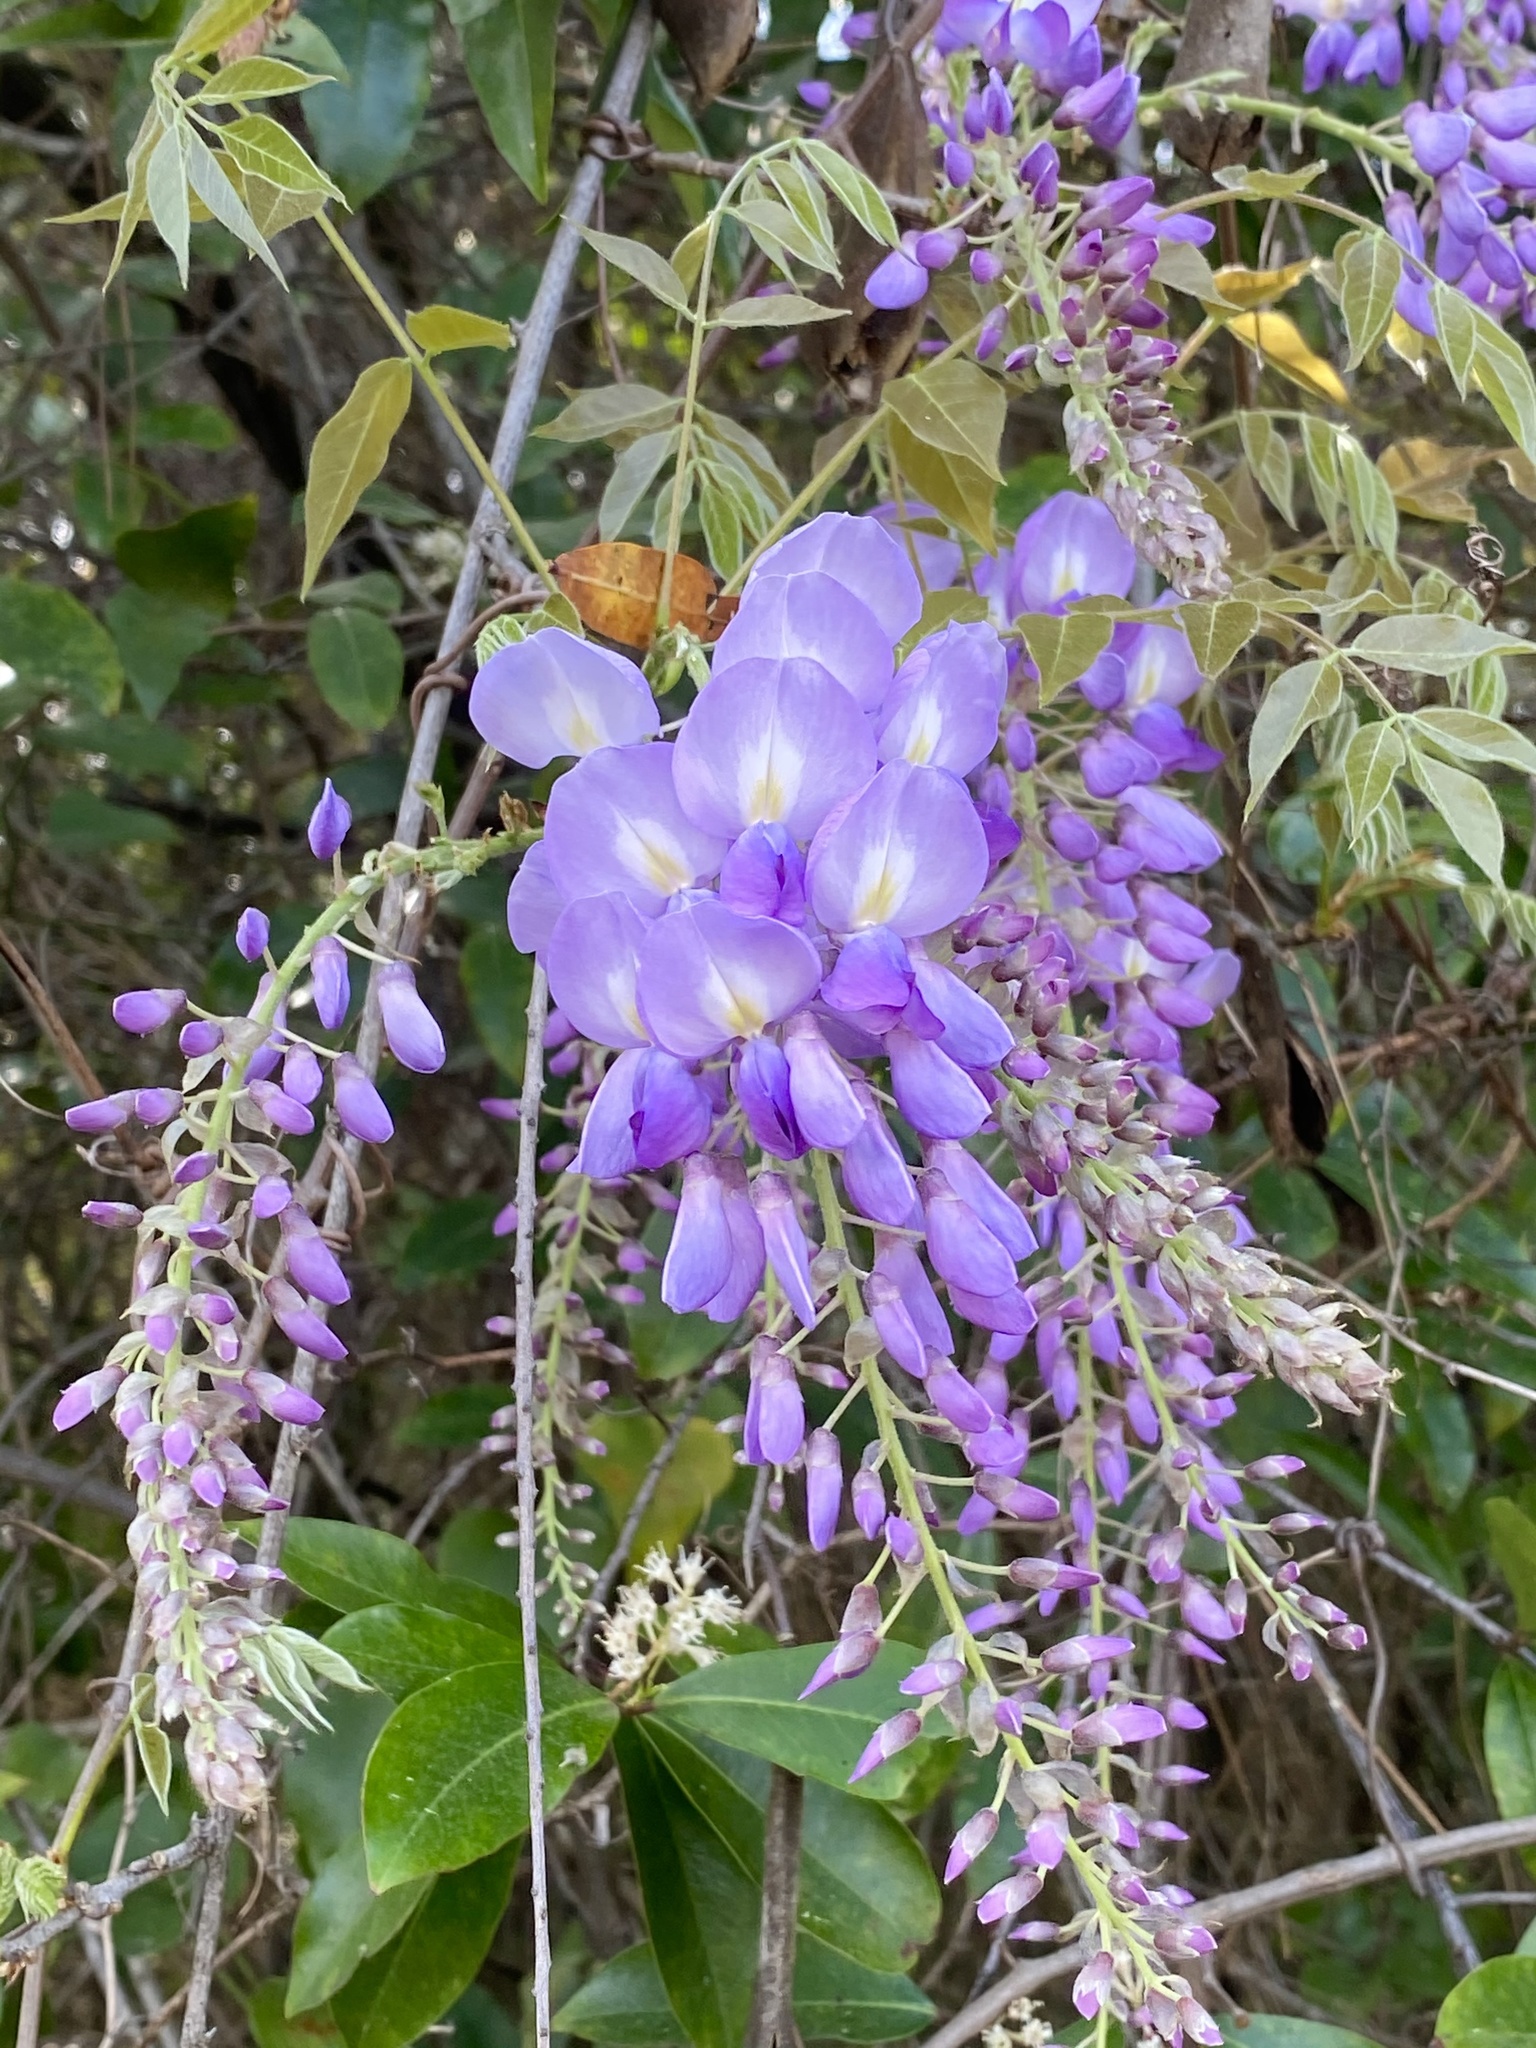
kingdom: Plantae
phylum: Tracheophyta
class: Magnoliopsida
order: Fabales
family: Fabaceae
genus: Wisteria
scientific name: Wisteria sinensis
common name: Chinese wisteria
